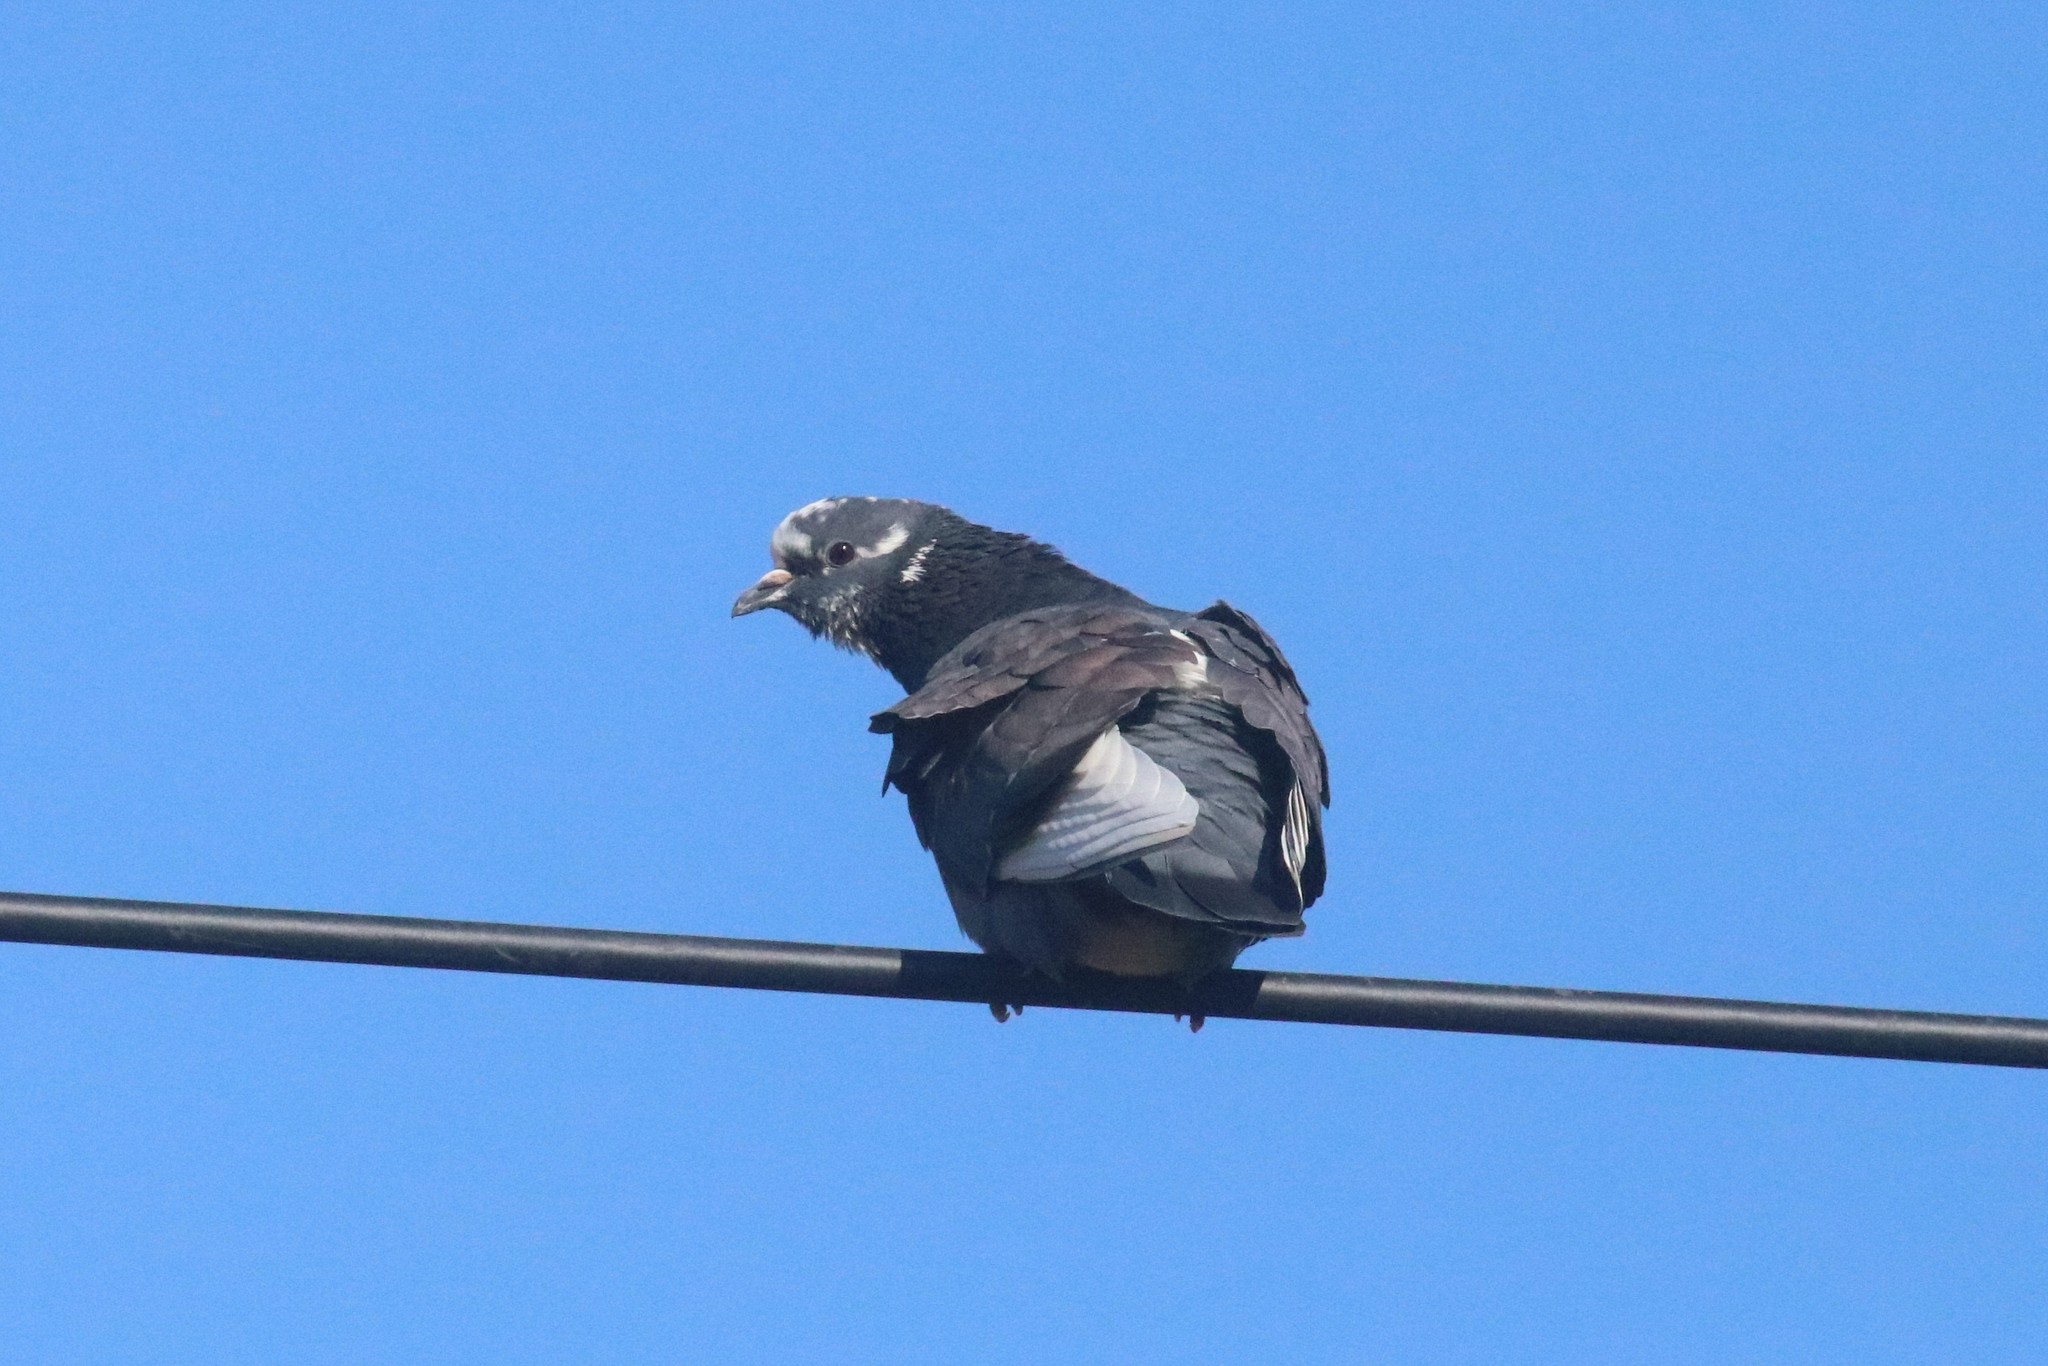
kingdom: Animalia
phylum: Chordata
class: Aves
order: Columbiformes
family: Columbidae
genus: Columba
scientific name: Columba livia
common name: Rock pigeon
